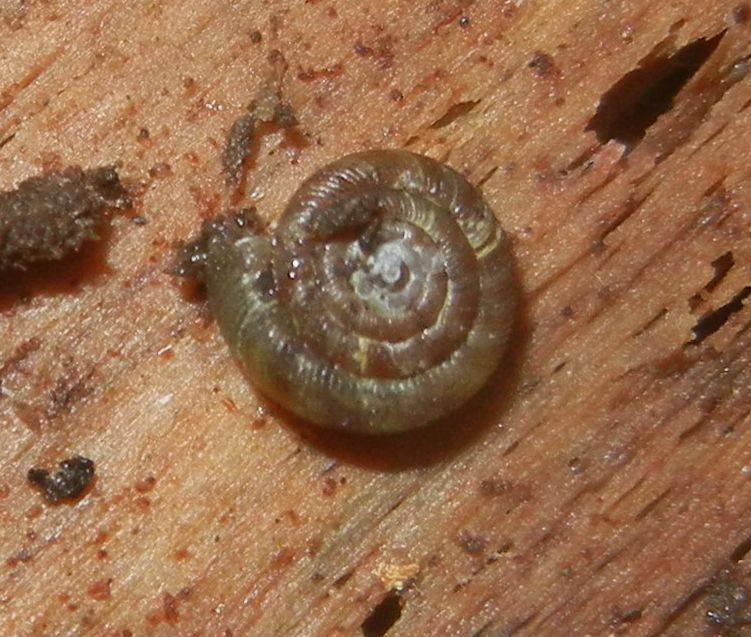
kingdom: Animalia
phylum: Mollusca
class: Gastropoda
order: Stylommatophora
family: Discidae
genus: Discus
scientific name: Discus rotundatus
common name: Rounded snail
